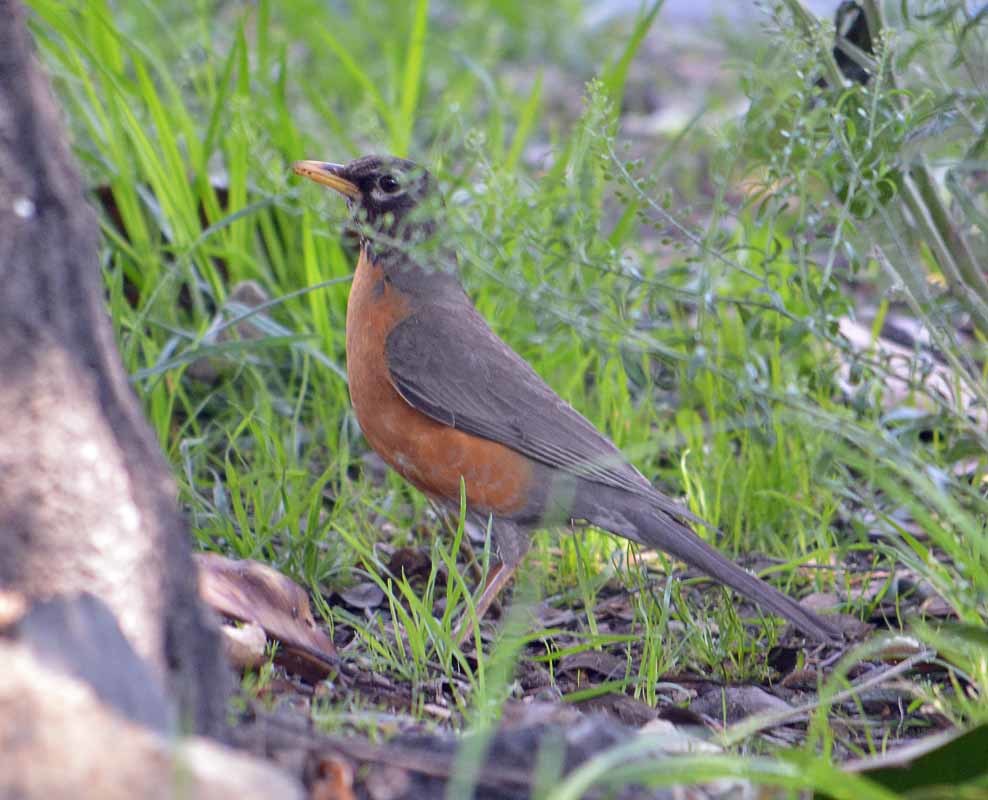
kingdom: Animalia
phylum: Chordata
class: Aves
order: Passeriformes
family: Turdidae
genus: Turdus
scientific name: Turdus migratorius
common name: American robin
